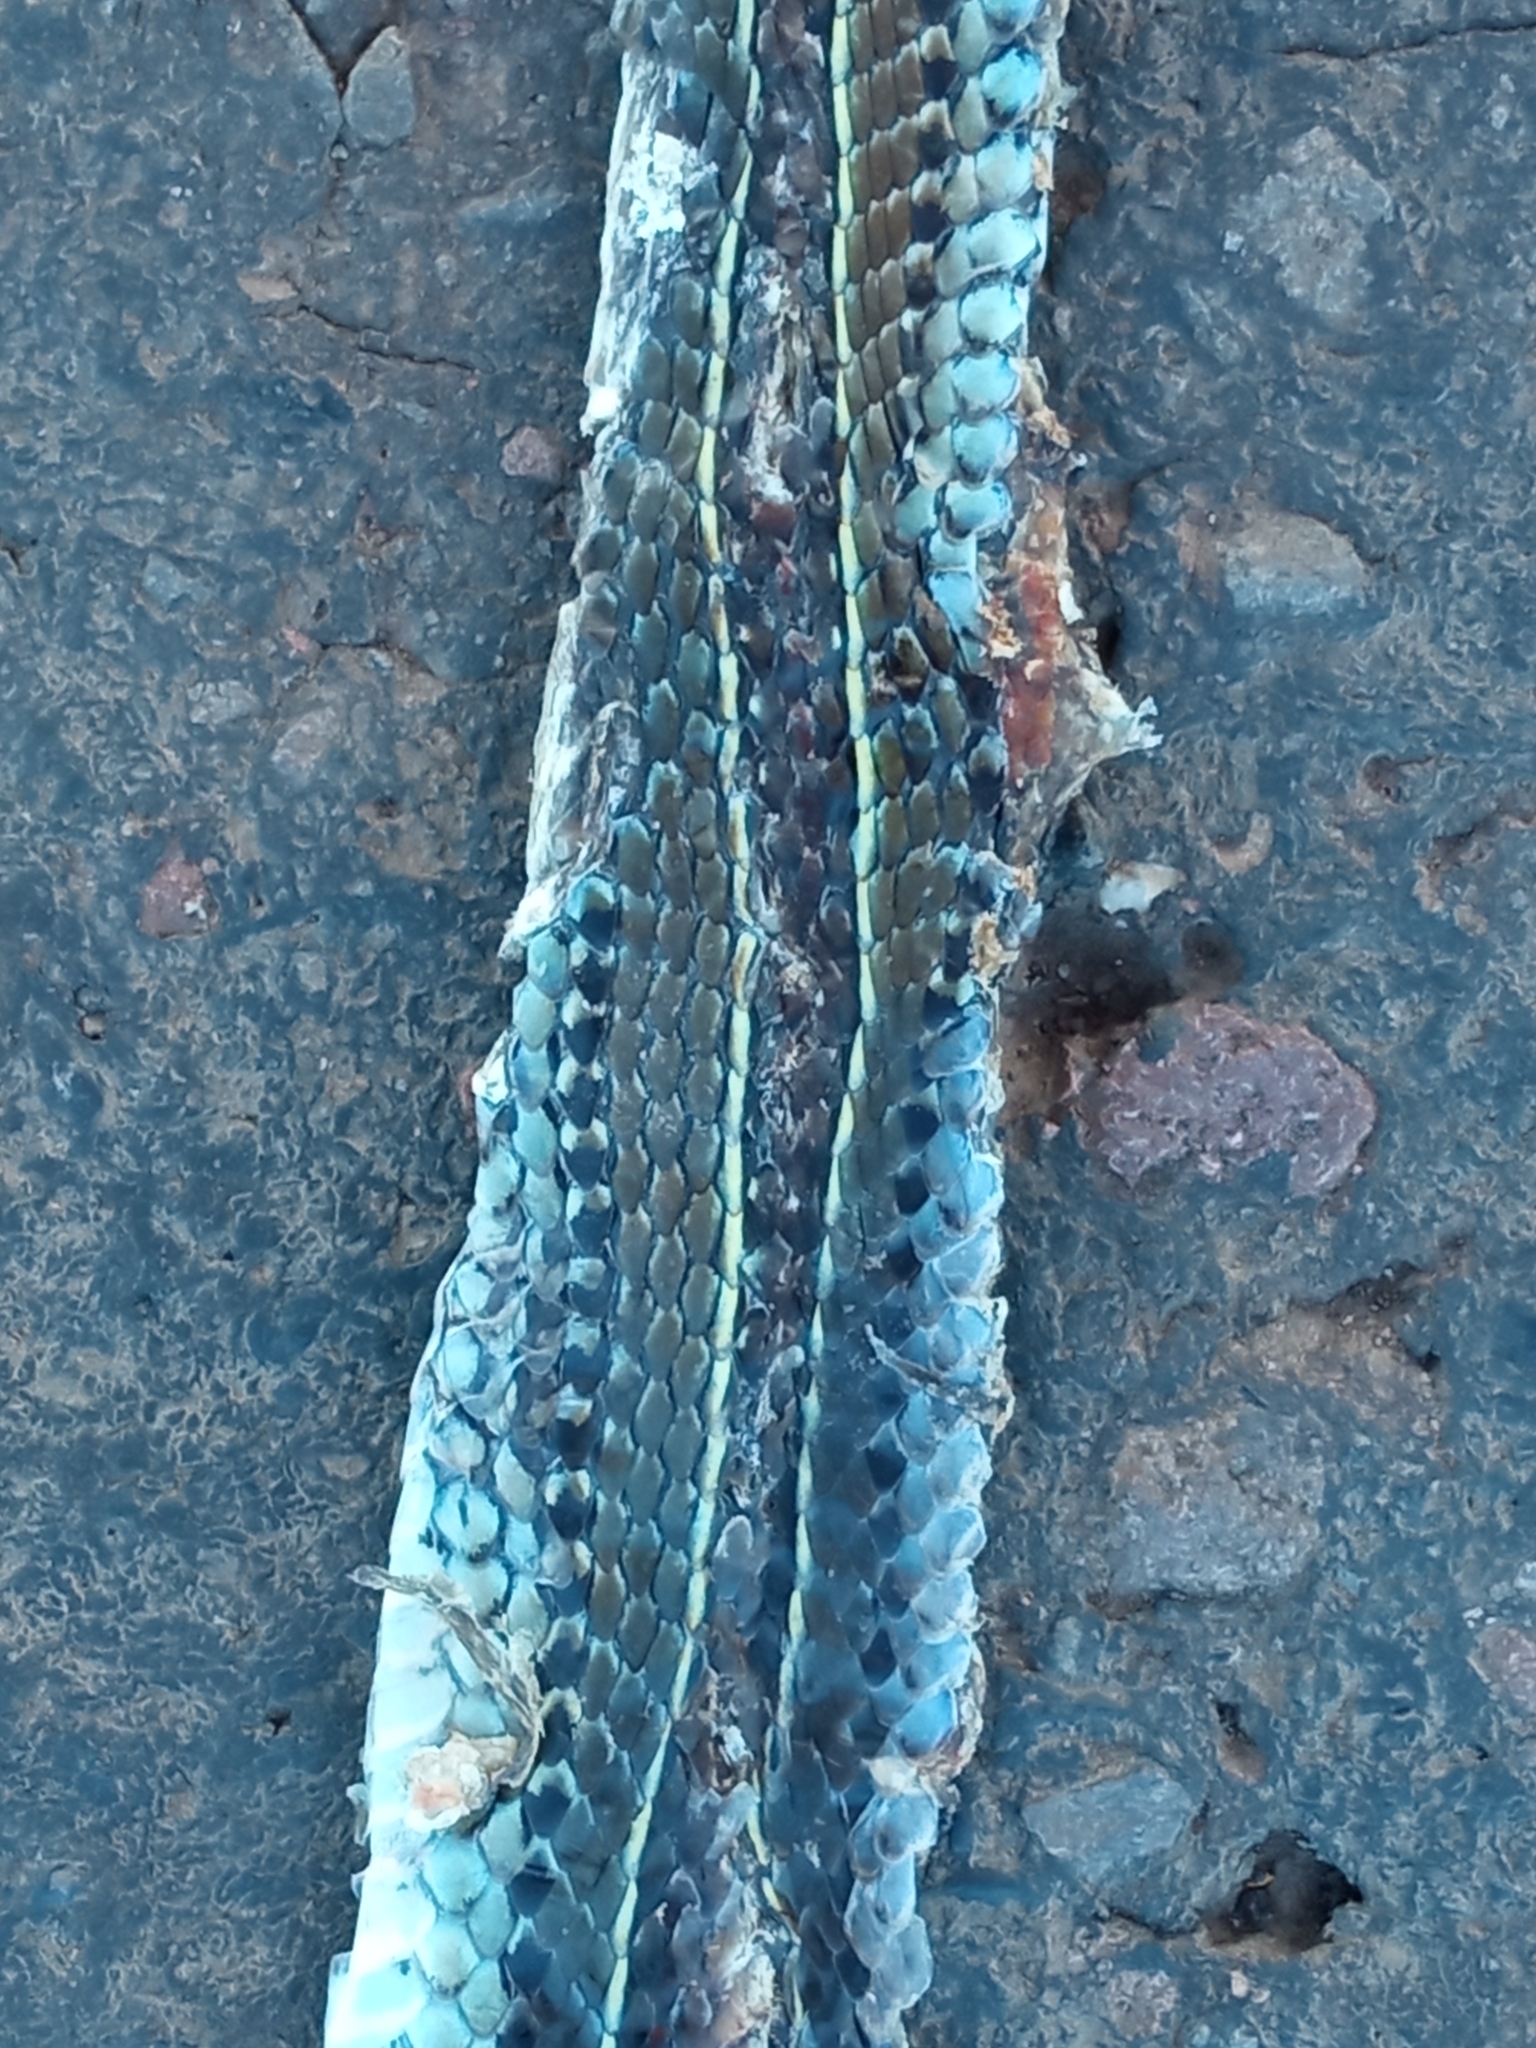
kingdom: Animalia
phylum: Chordata
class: Squamata
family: Colubridae
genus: Lygophis
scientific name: Lygophis flavifrenatus
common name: Fronted ground snake
